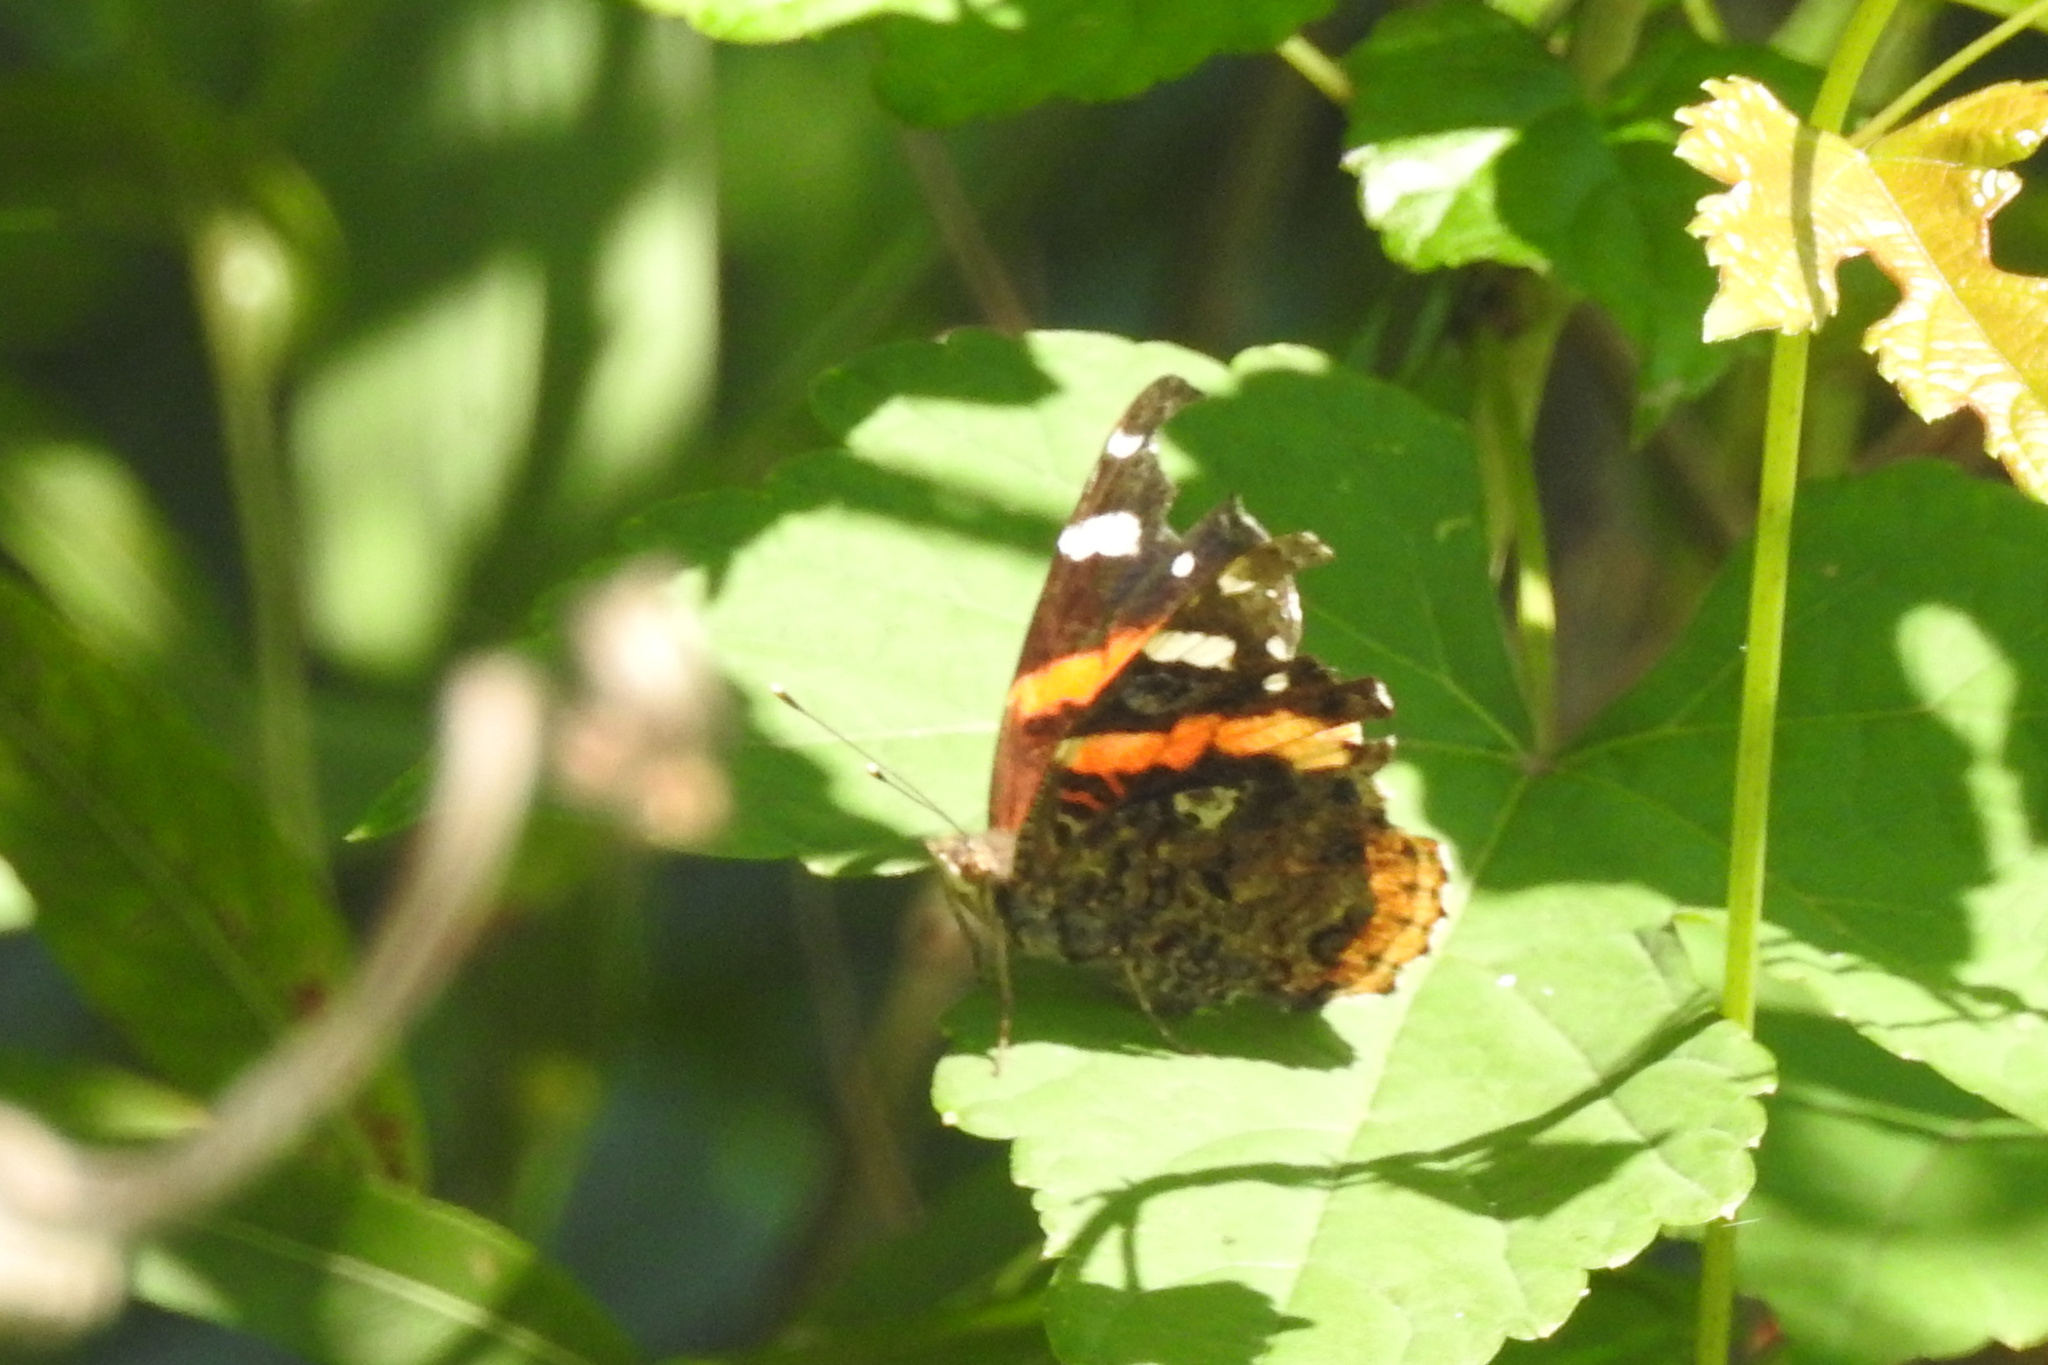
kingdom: Animalia
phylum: Arthropoda
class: Insecta
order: Lepidoptera
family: Nymphalidae
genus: Vanessa
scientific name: Vanessa atalanta
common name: Red admiral
